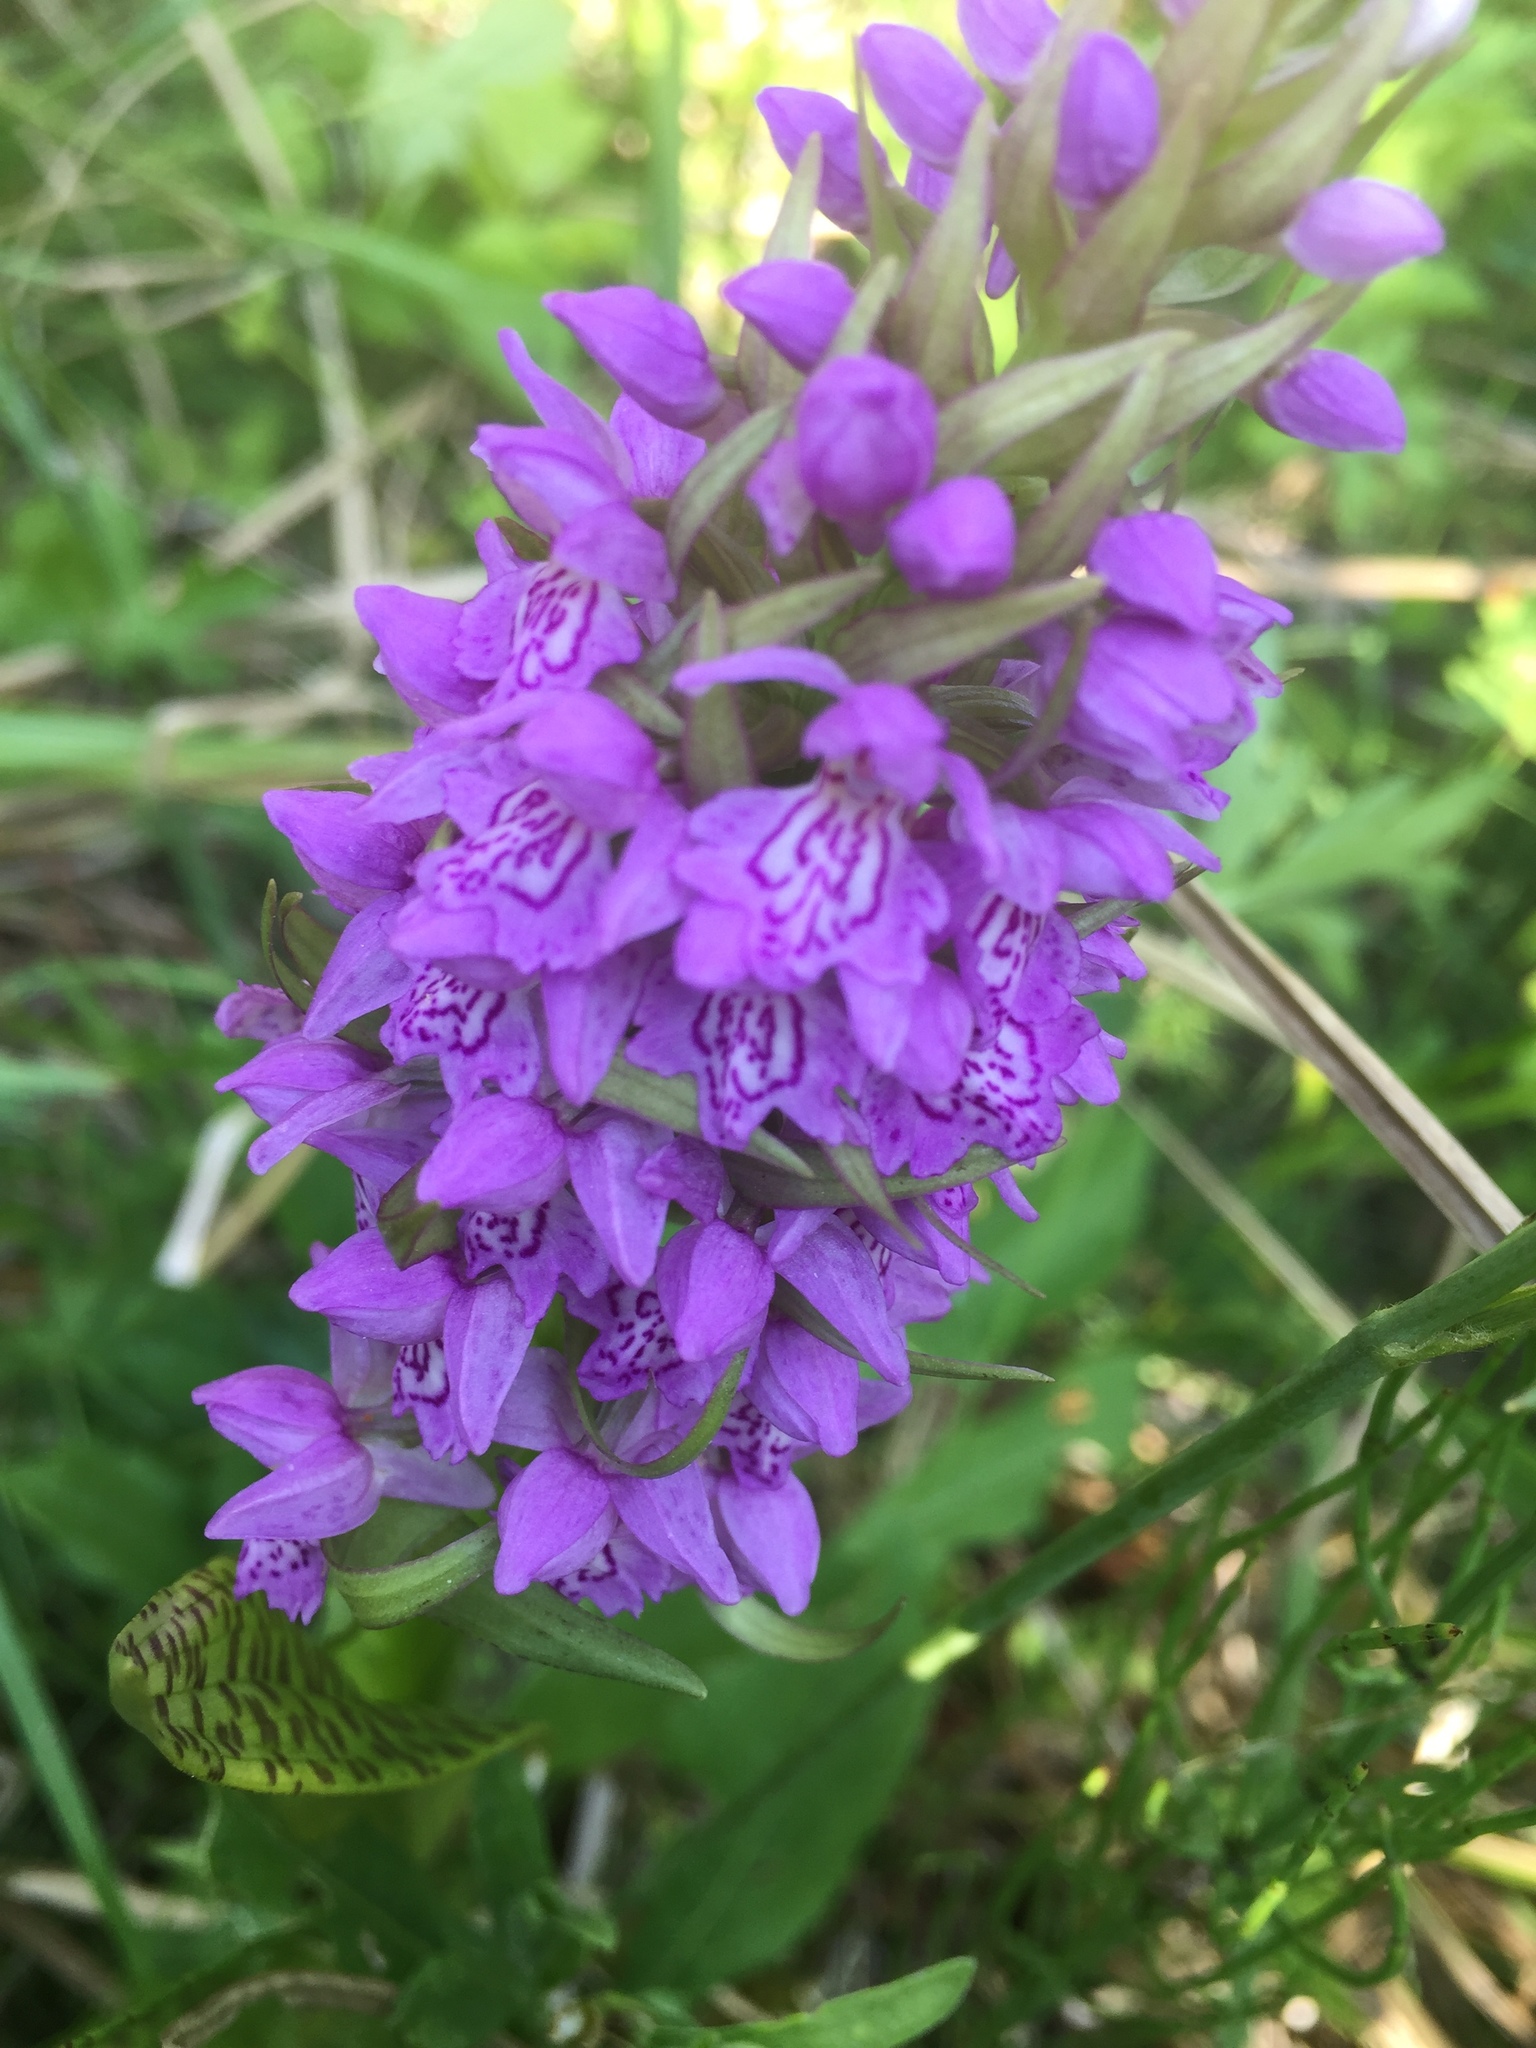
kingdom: Plantae
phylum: Tracheophyta
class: Liliopsida
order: Asparagales
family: Orchidaceae
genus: Dactylorhiza
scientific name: Dactylorhiza majalis
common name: Marsh orchid
